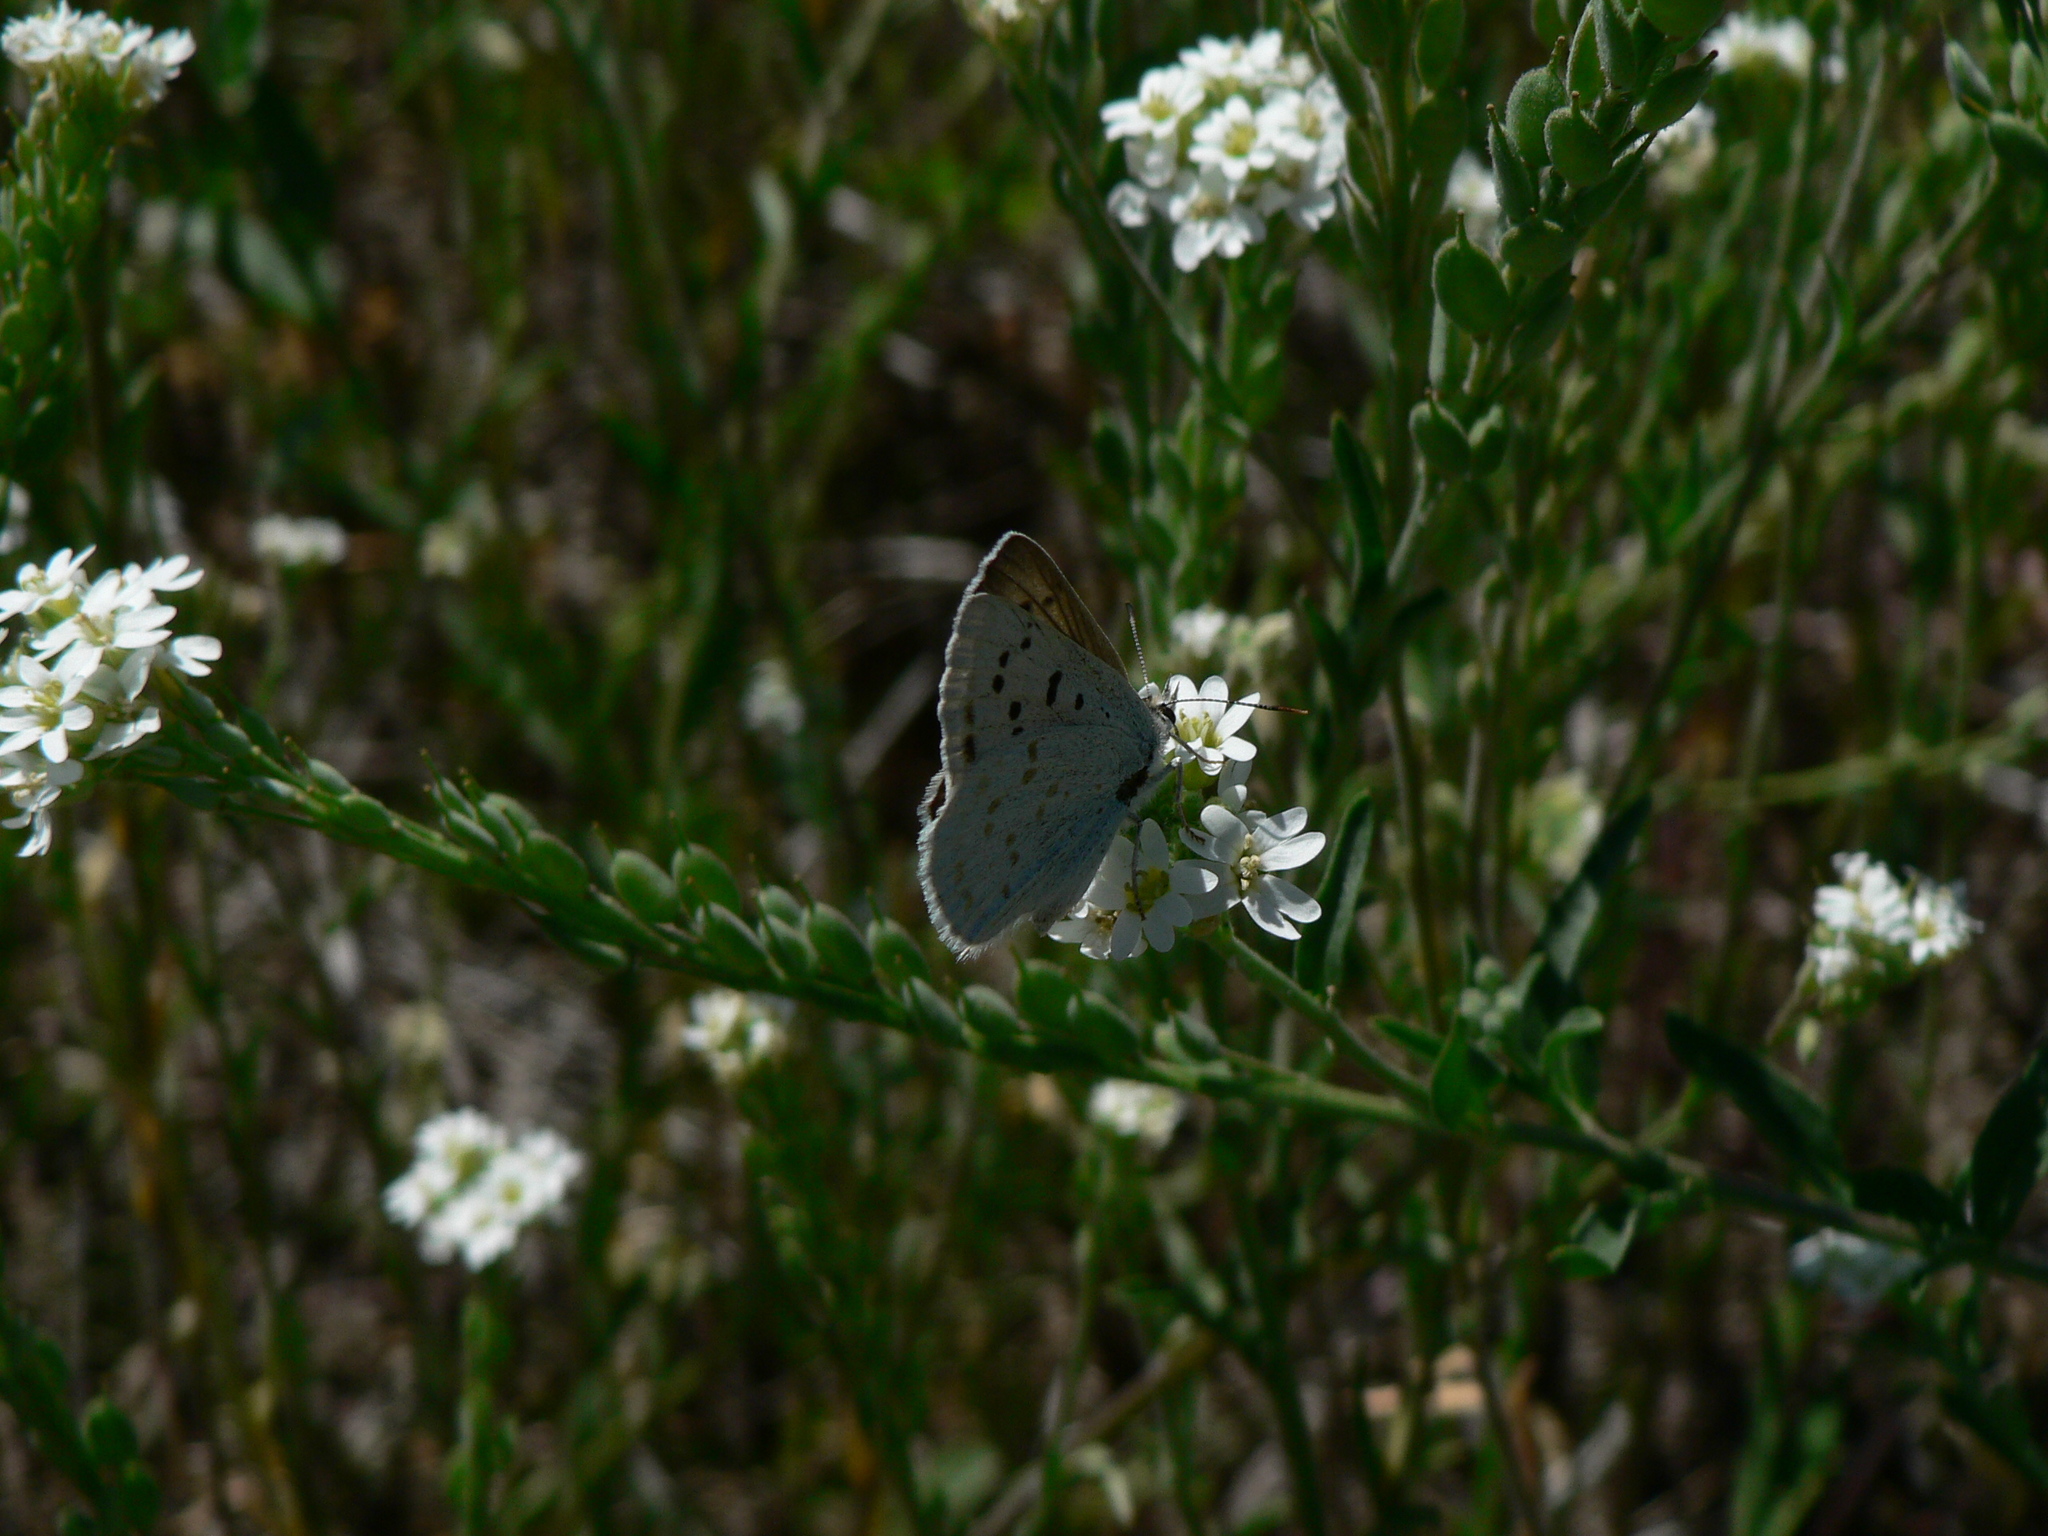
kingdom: Animalia
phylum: Arthropoda
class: Insecta
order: Lepidoptera
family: Lycaenidae
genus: Tharsalea
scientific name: Tharsalea heteronea
